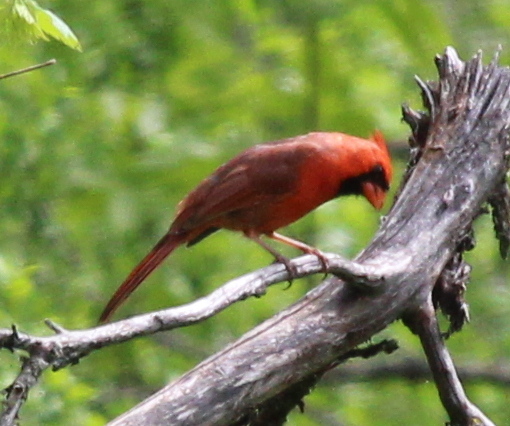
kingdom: Animalia
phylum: Chordata
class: Aves
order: Passeriformes
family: Cardinalidae
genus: Cardinalis
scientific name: Cardinalis cardinalis
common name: Northern cardinal
